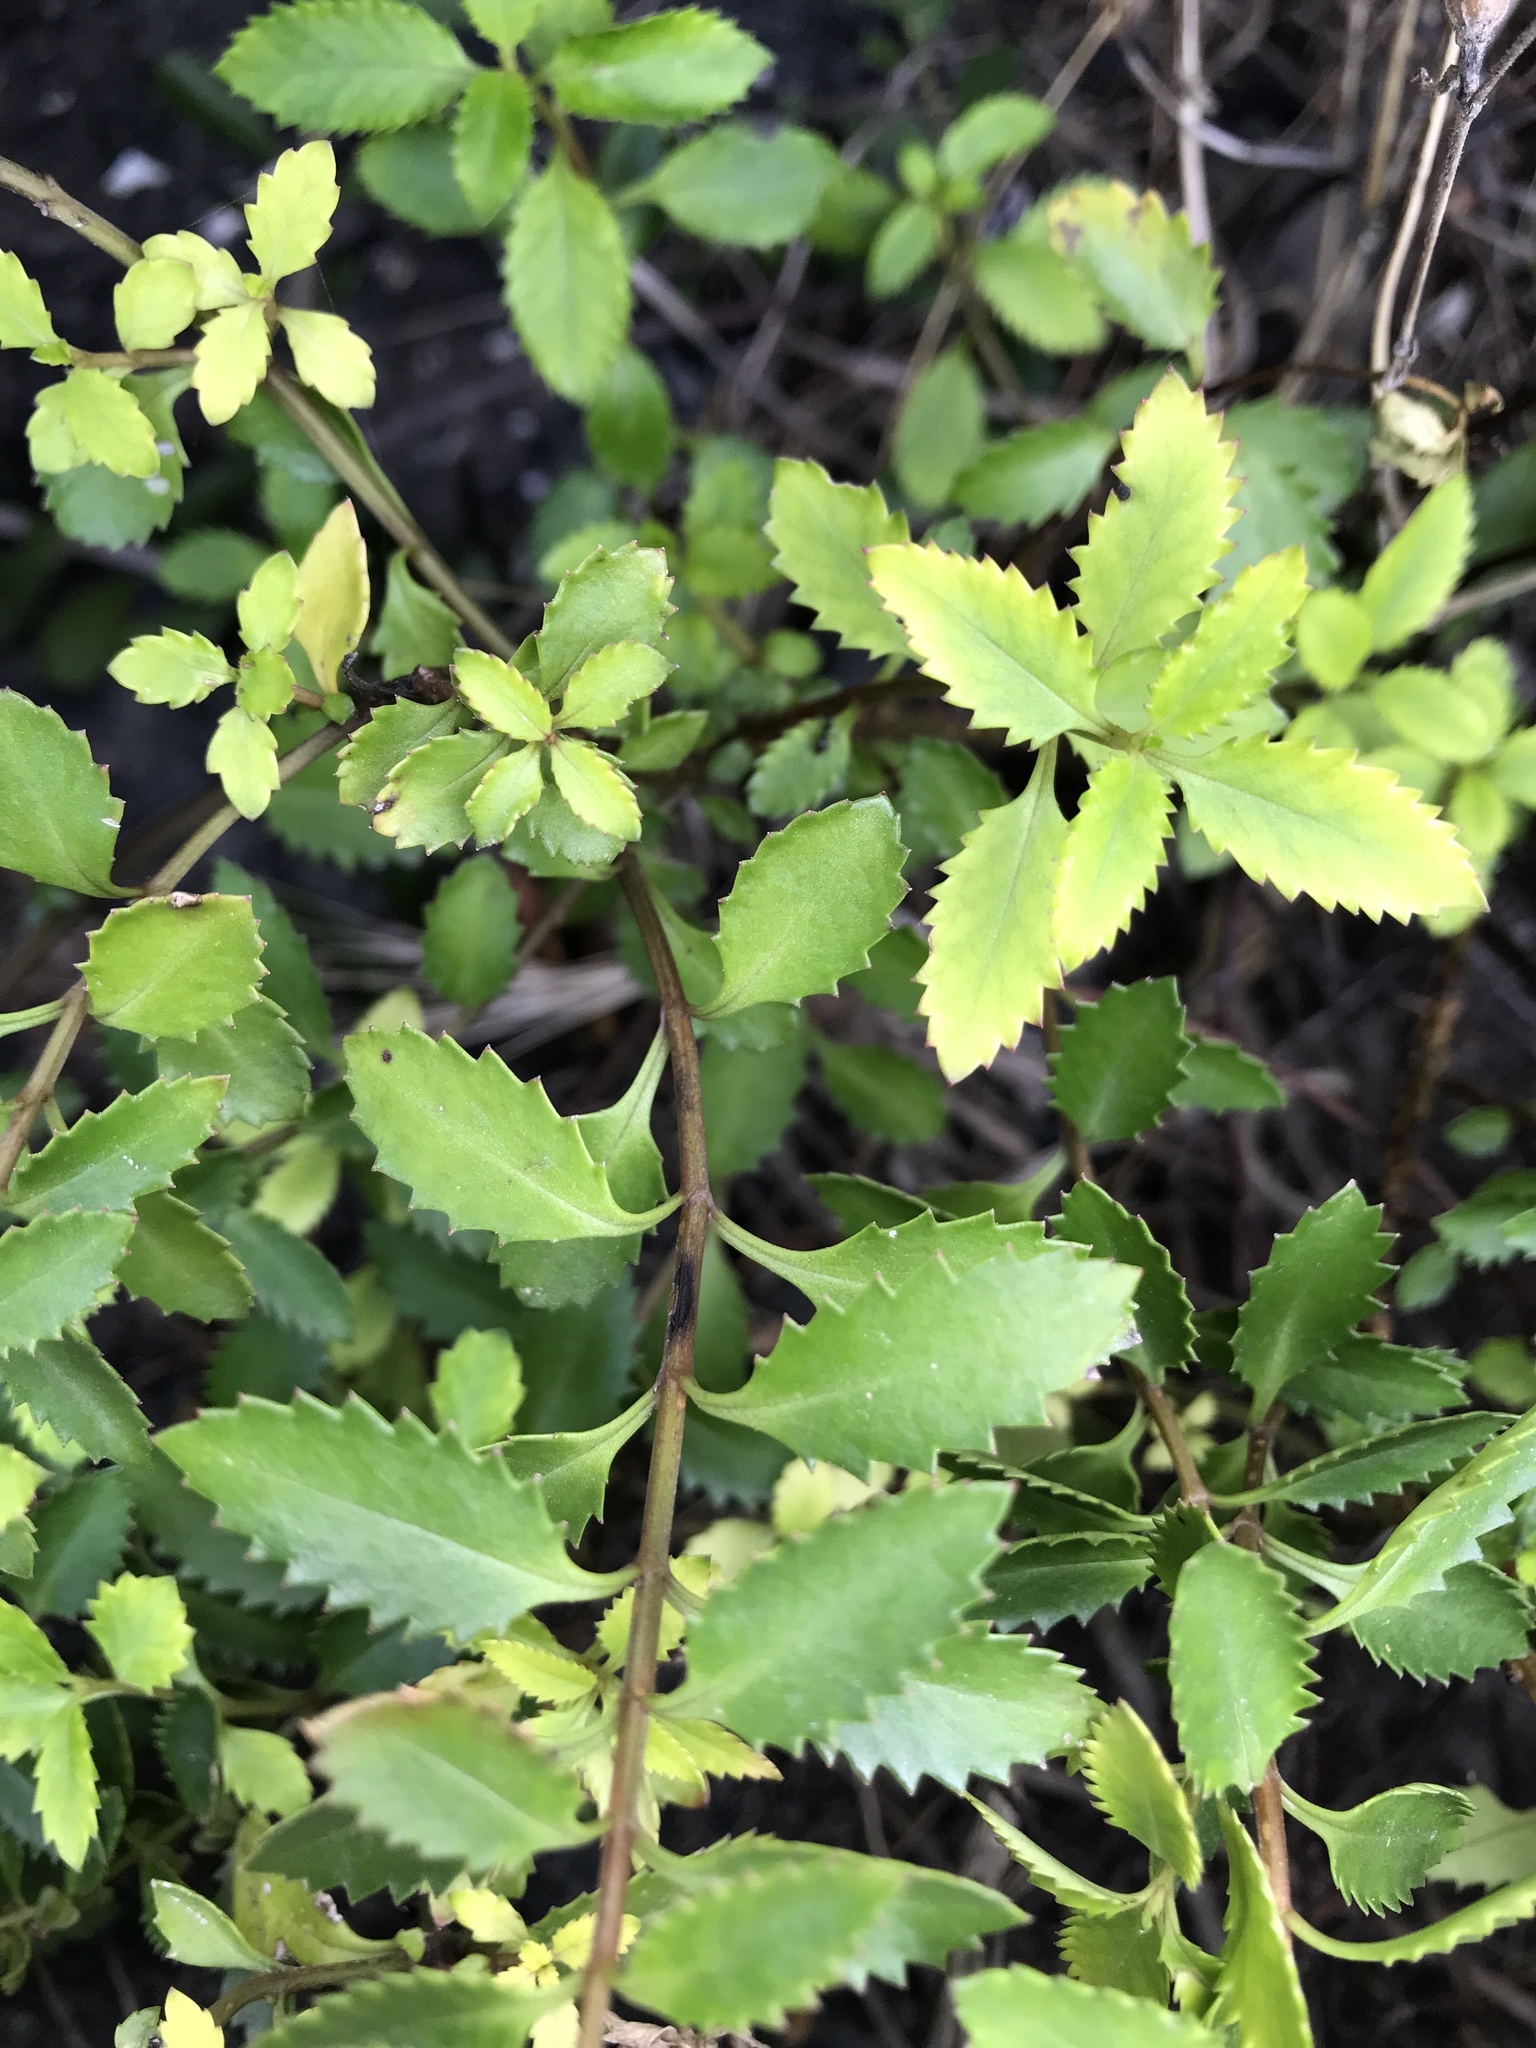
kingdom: Plantae
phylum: Tracheophyta
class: Magnoliopsida
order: Saxifragales
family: Haloragaceae
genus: Haloragis
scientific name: Haloragis erecta
